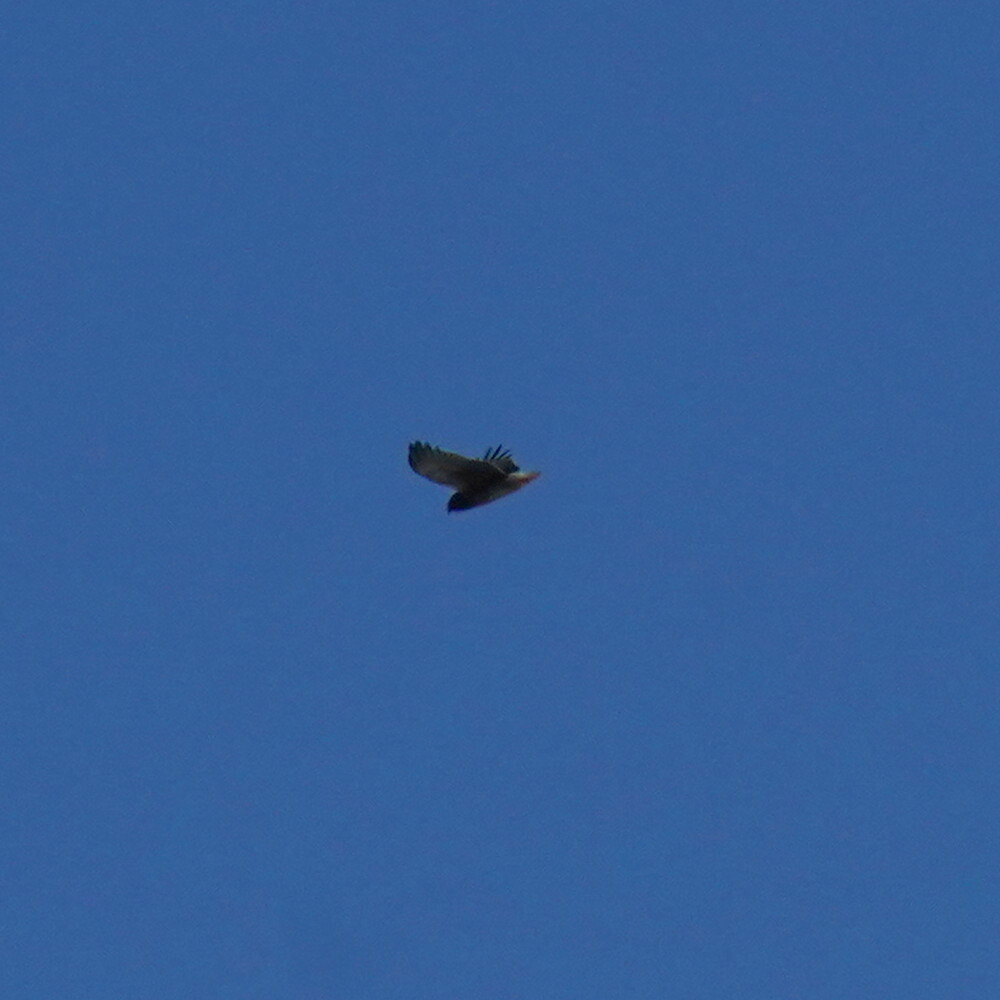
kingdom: Animalia
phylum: Chordata
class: Aves
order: Accipitriformes
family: Accipitridae
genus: Buteo
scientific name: Buteo jamaicensis
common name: Red-tailed hawk
